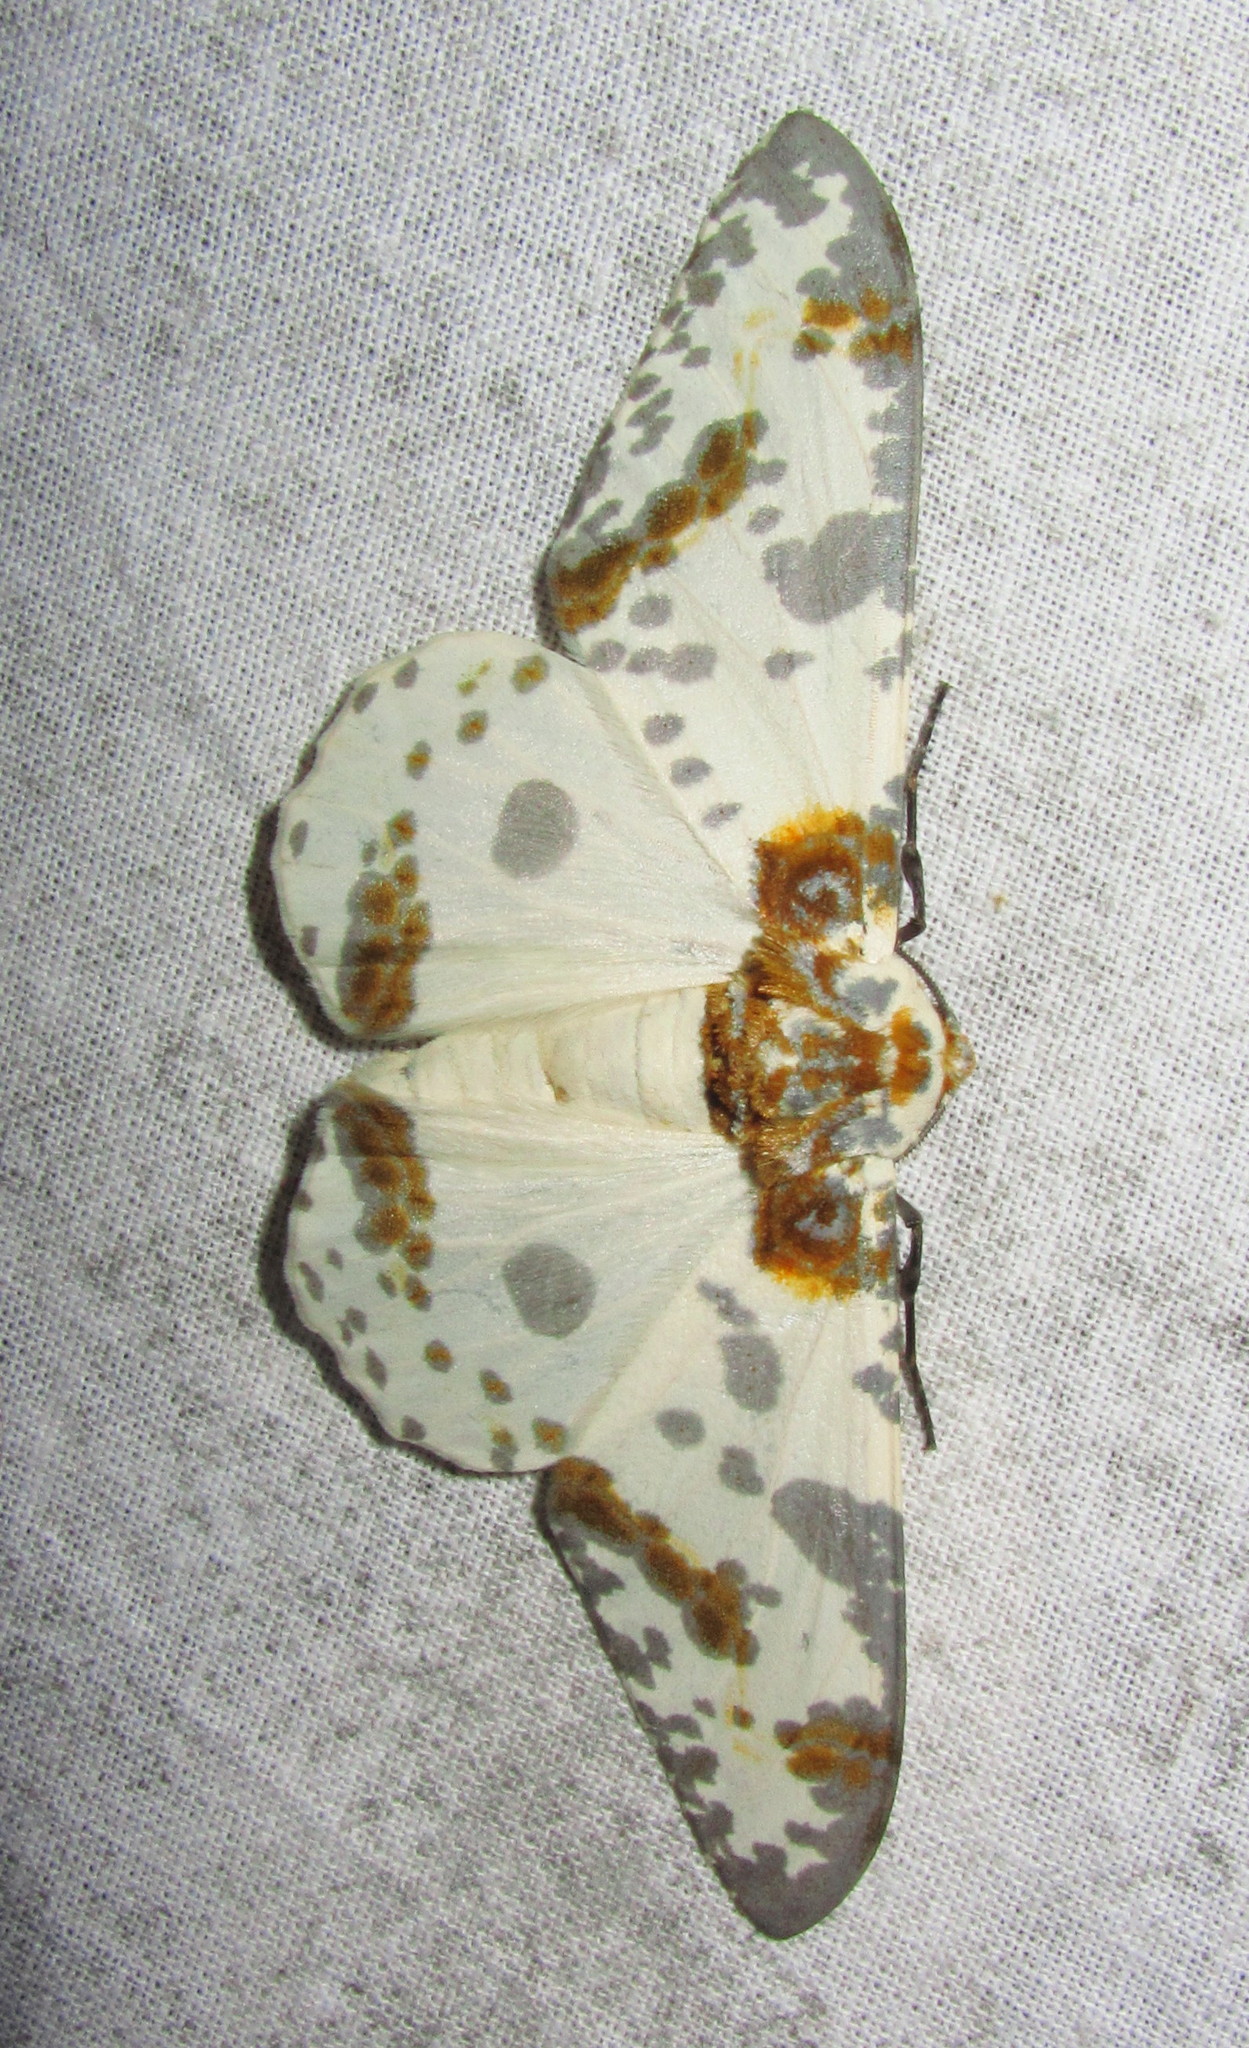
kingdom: Animalia
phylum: Arthropoda
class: Insecta
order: Lepidoptera
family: Geometridae
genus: Biston
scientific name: Biston panterinaria
